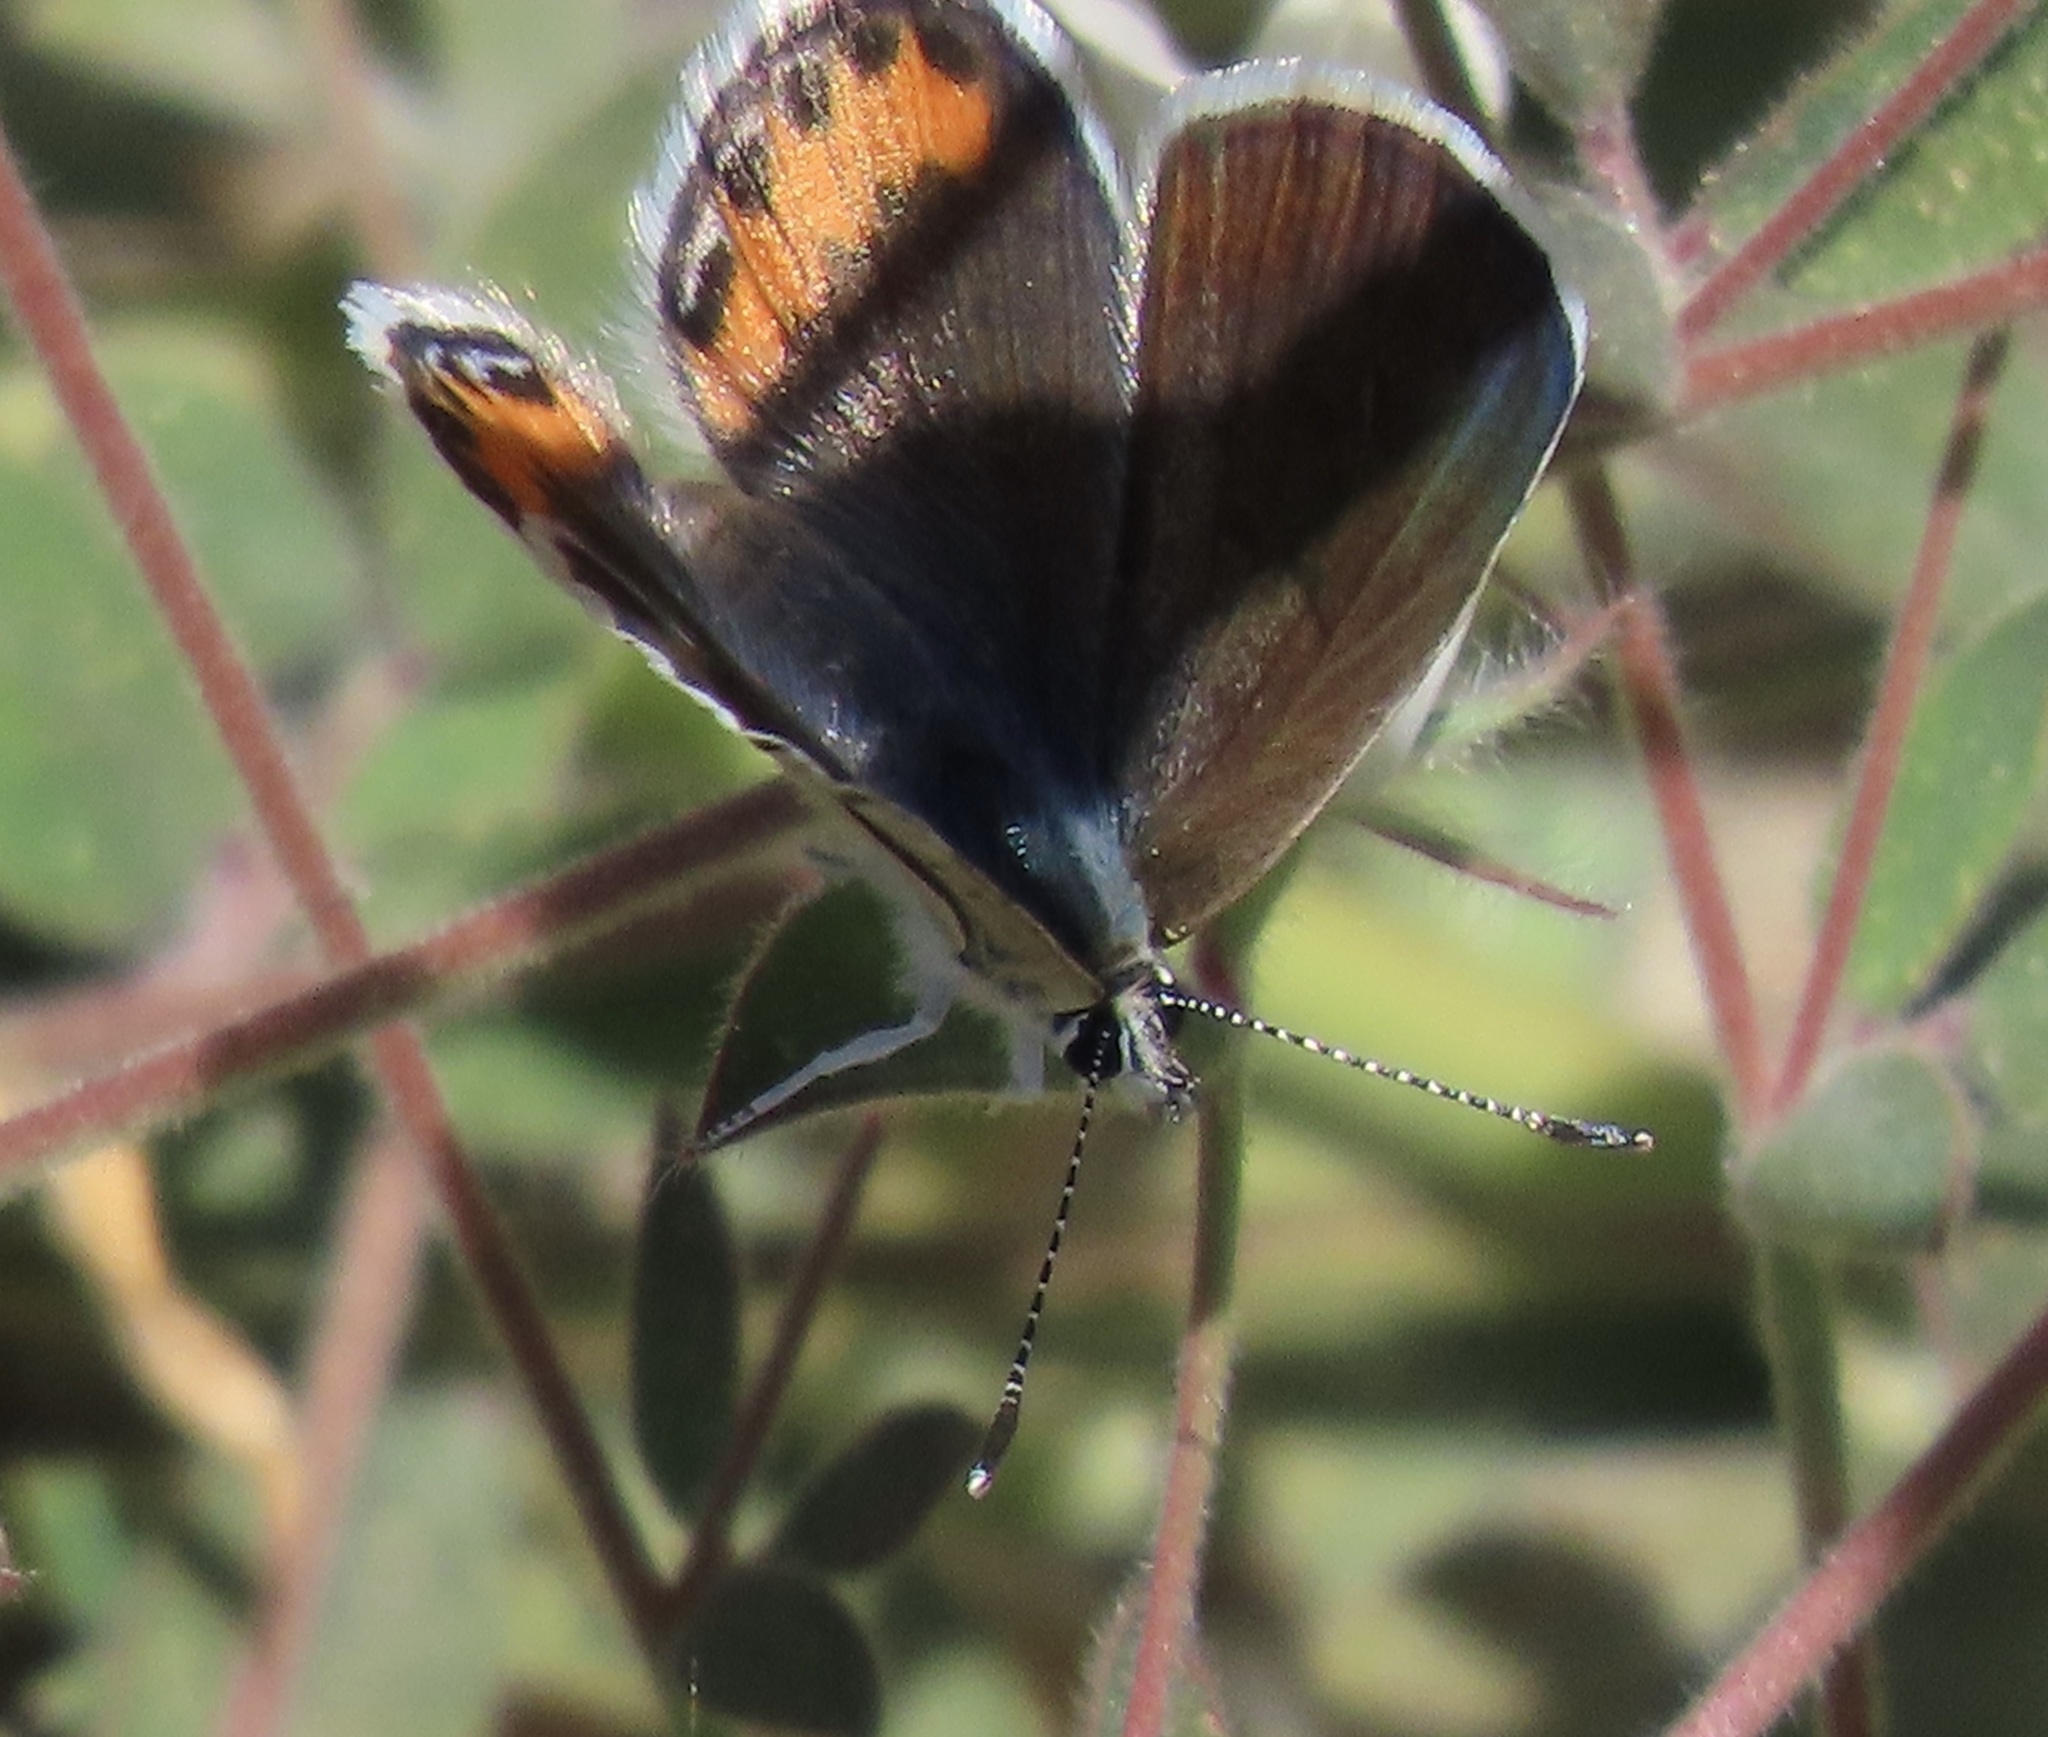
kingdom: Animalia
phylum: Arthropoda
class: Insecta
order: Lepidoptera
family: Lycaenidae
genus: Icaricia
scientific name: Icaricia acmon
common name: Acmon blue
